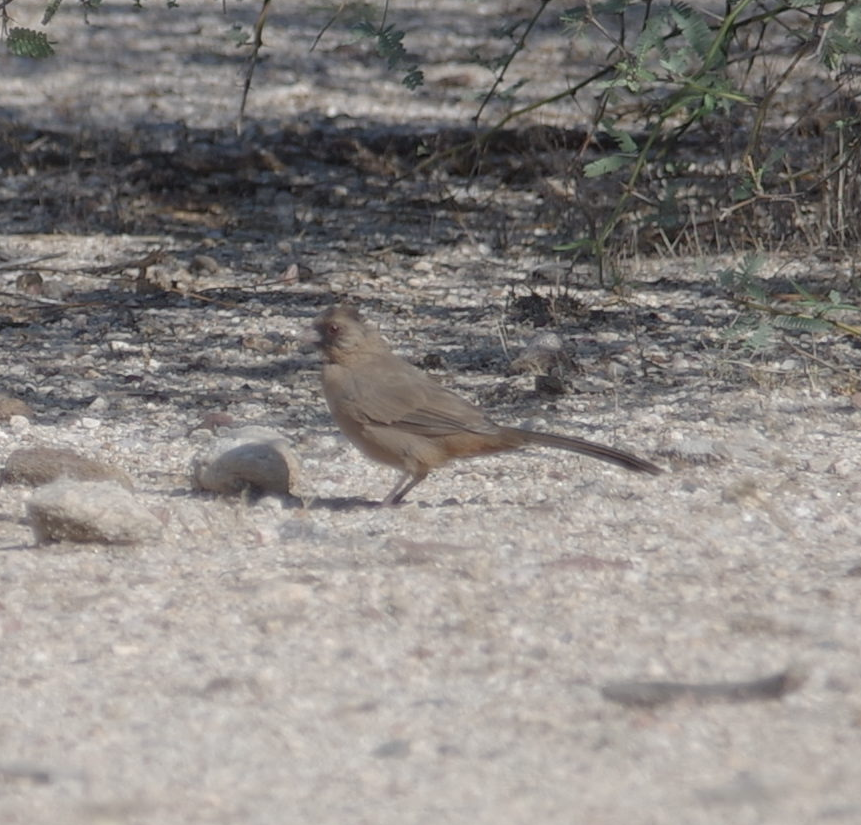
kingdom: Animalia
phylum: Chordata
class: Aves
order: Passeriformes
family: Passerellidae
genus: Melozone
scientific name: Melozone aberti
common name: Abert's towhee
